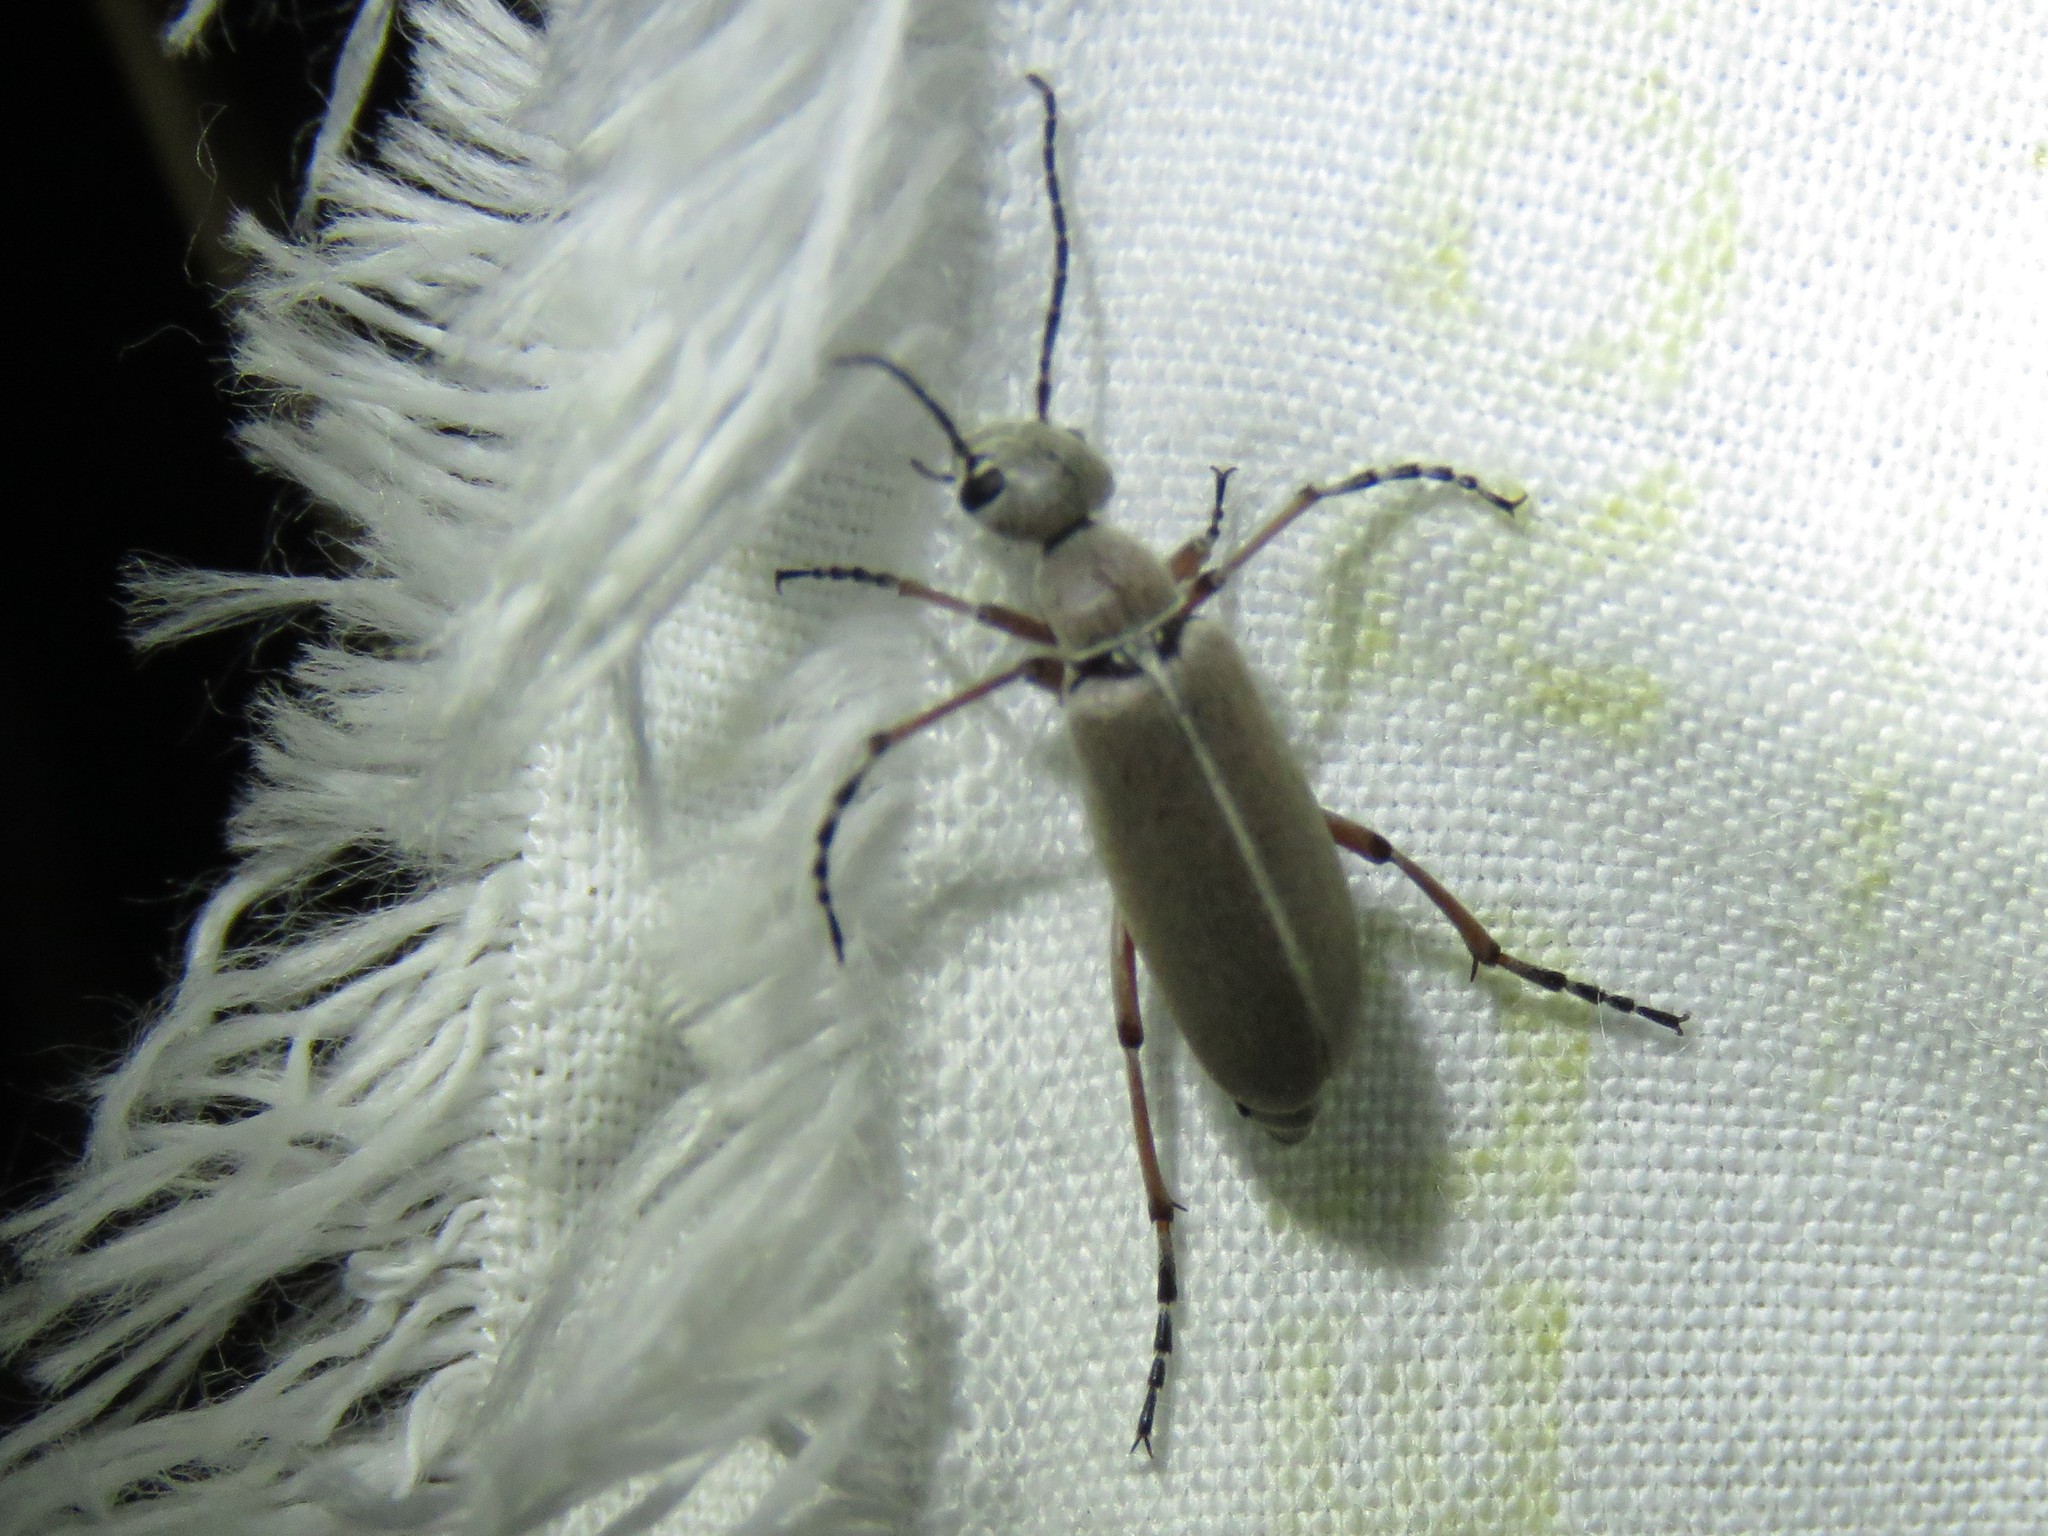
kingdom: Animalia
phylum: Arthropoda
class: Insecta
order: Coleoptera
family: Meloidae
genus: Epicauta
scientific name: Epicauta nigritarsis
